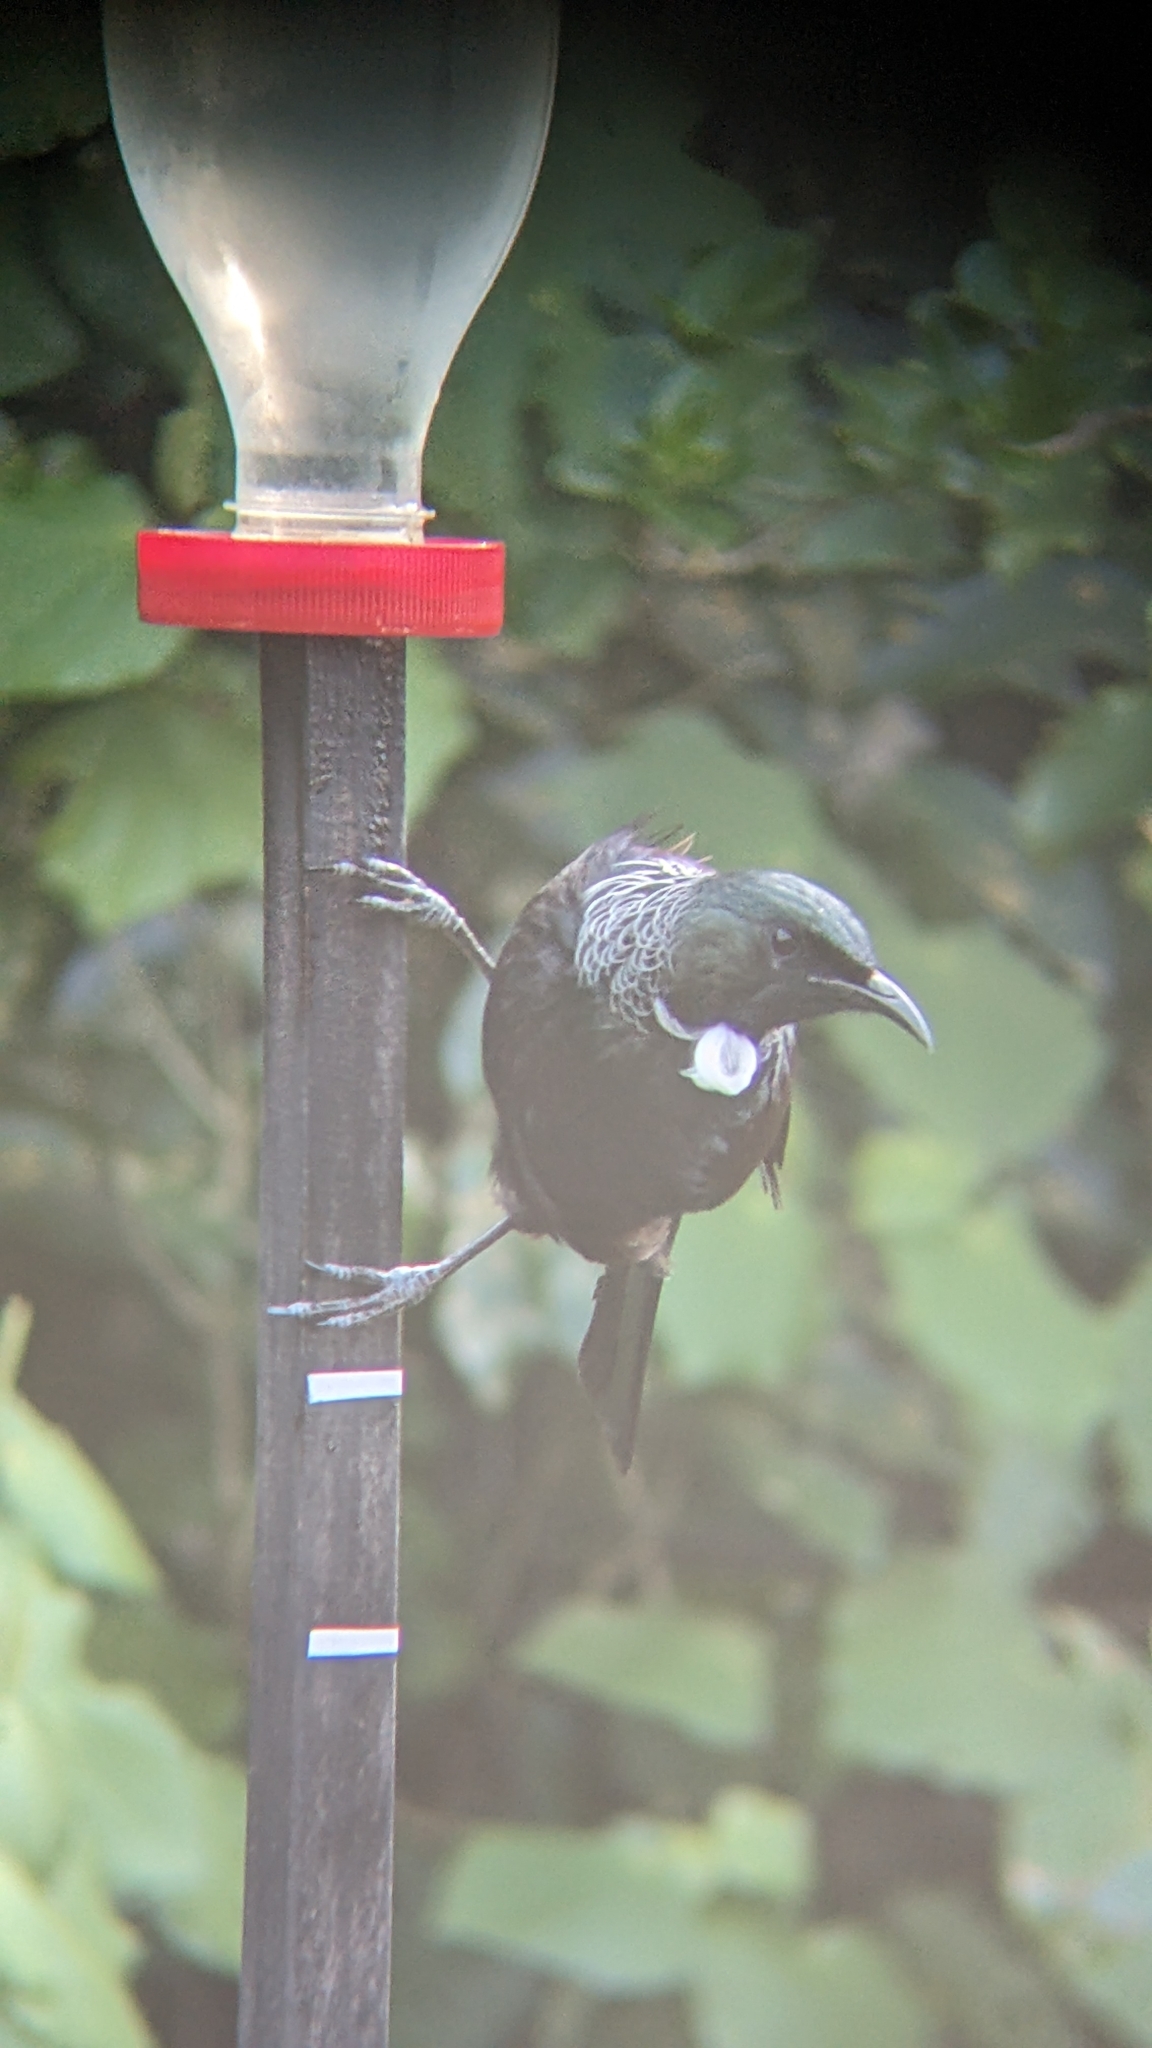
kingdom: Animalia
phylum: Chordata
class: Aves
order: Passeriformes
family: Meliphagidae
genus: Prosthemadera
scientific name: Prosthemadera novaeseelandiae
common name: Tui
